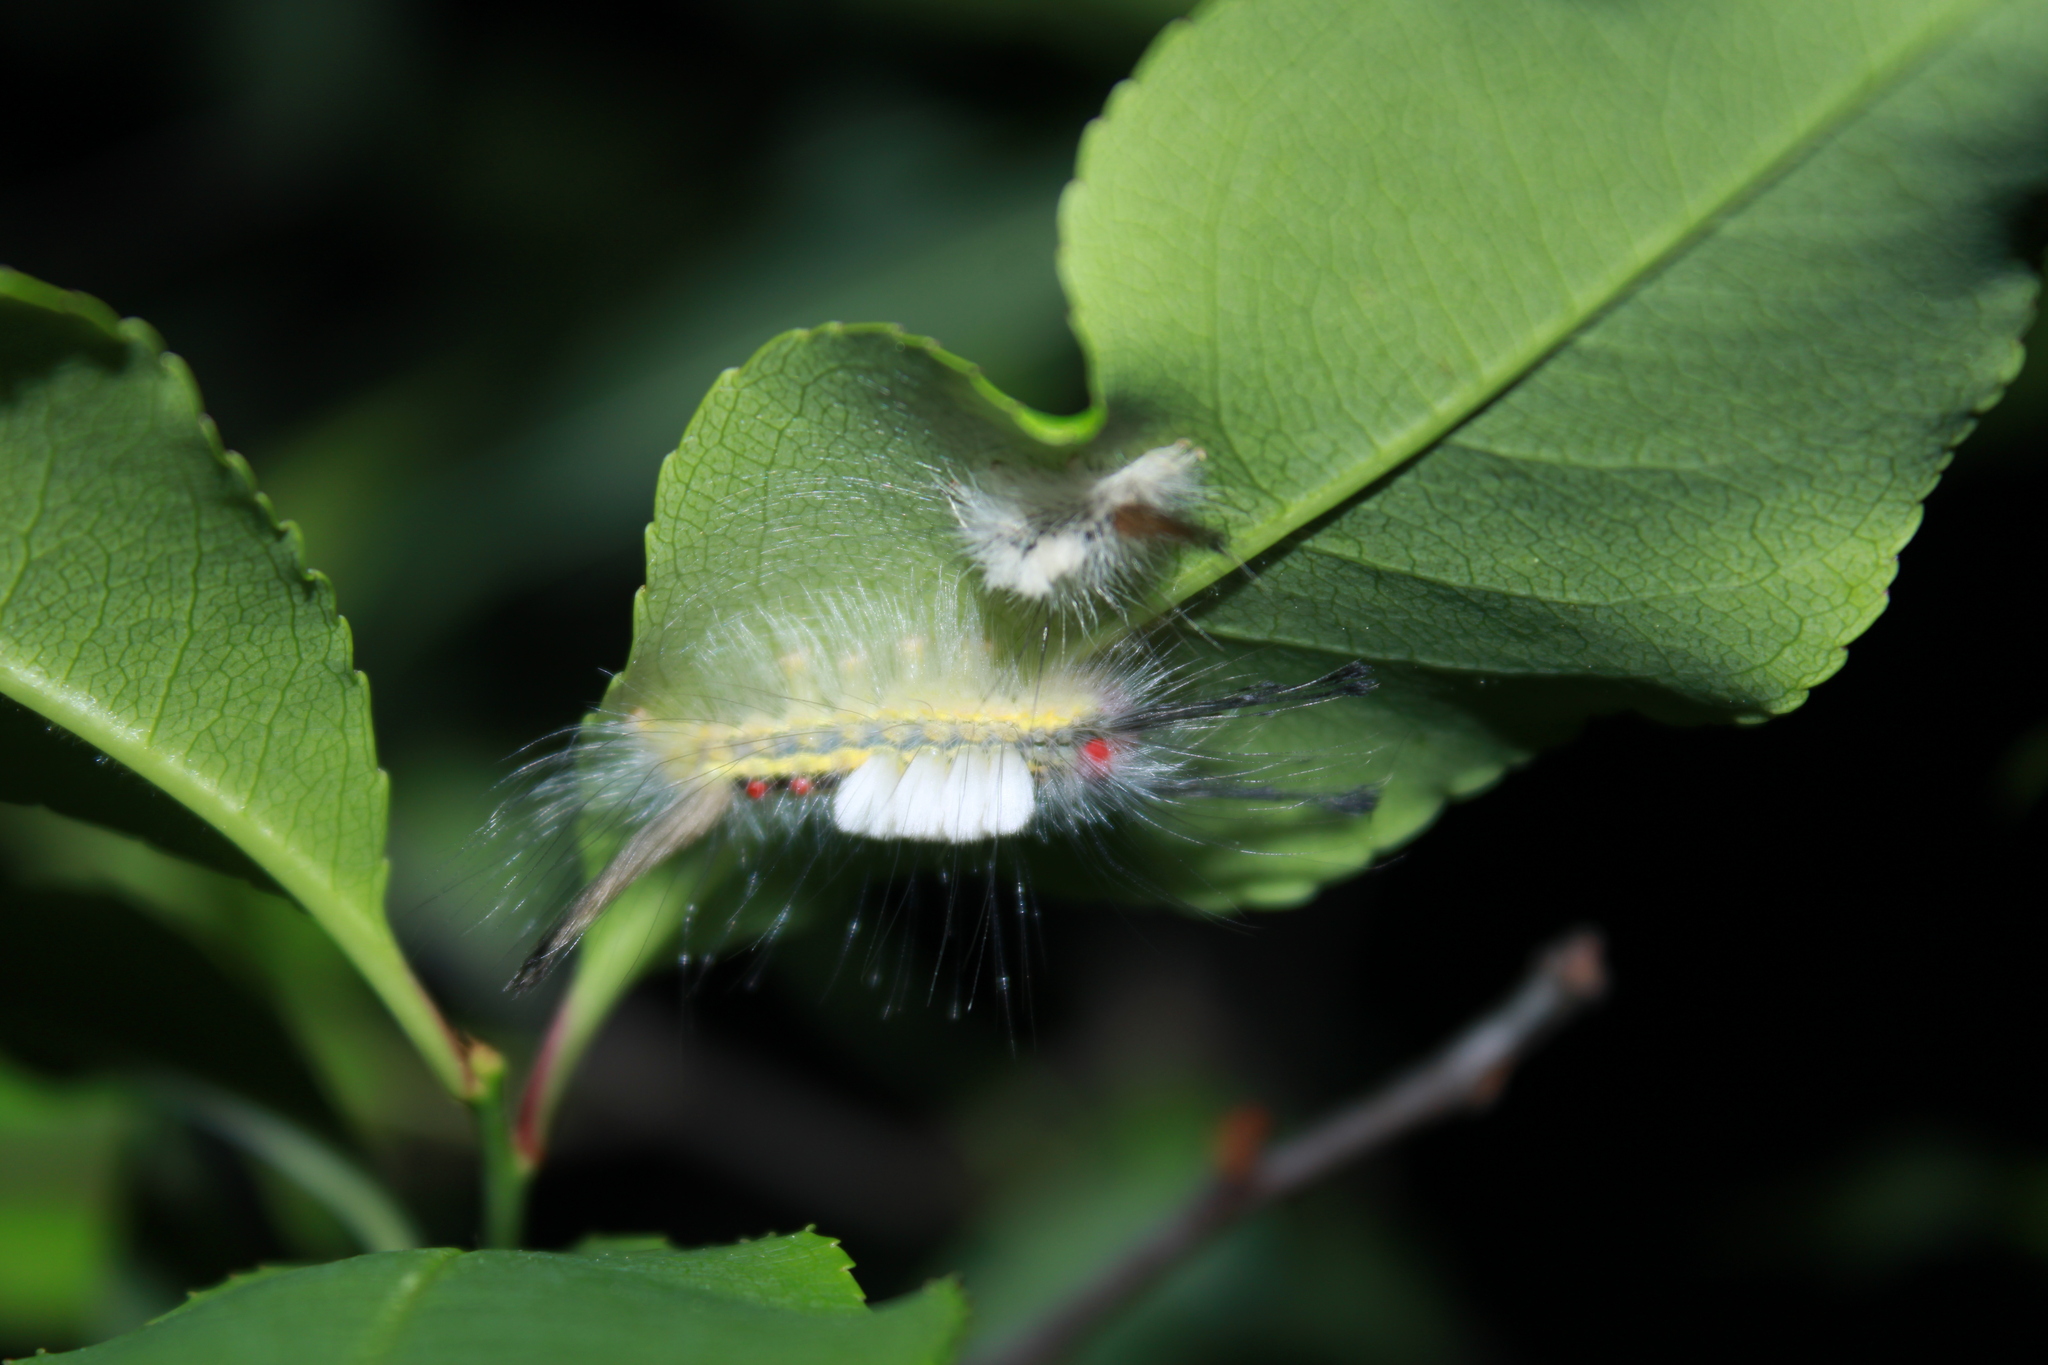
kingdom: Animalia
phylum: Arthropoda
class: Insecta
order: Lepidoptera
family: Erebidae
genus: Orgyia
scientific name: Orgyia leucostigma
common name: White-marked tussock moth
